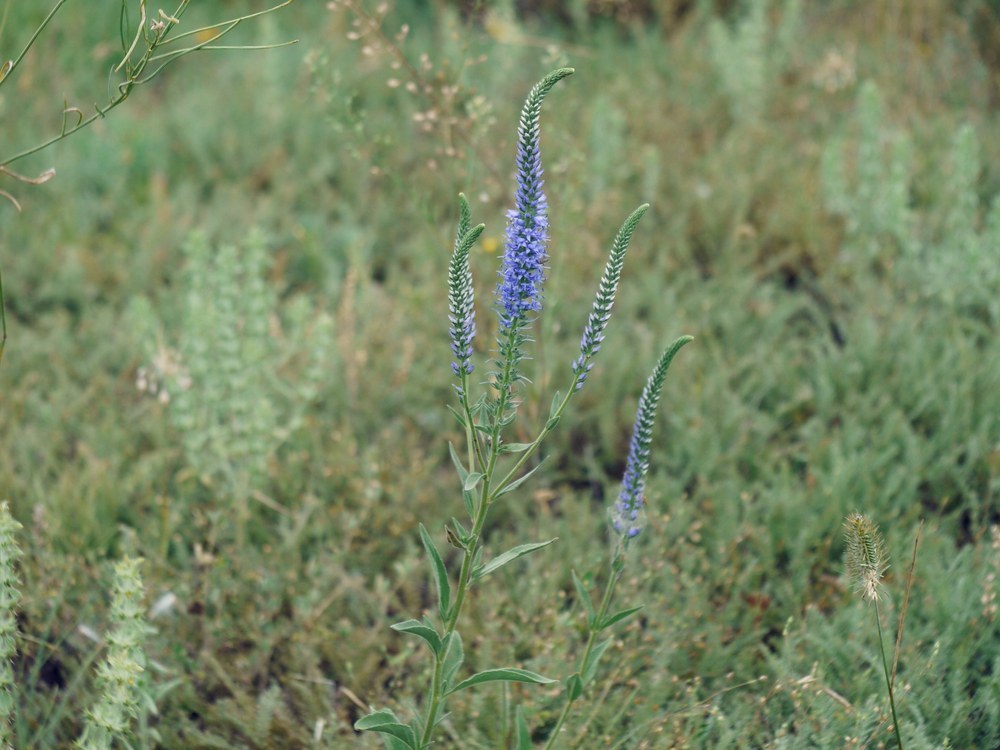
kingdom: Plantae
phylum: Tracheophyta
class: Magnoliopsida
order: Lamiales
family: Plantaginaceae
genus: Veronica
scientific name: Veronica spicata
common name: Spiked speedwell
